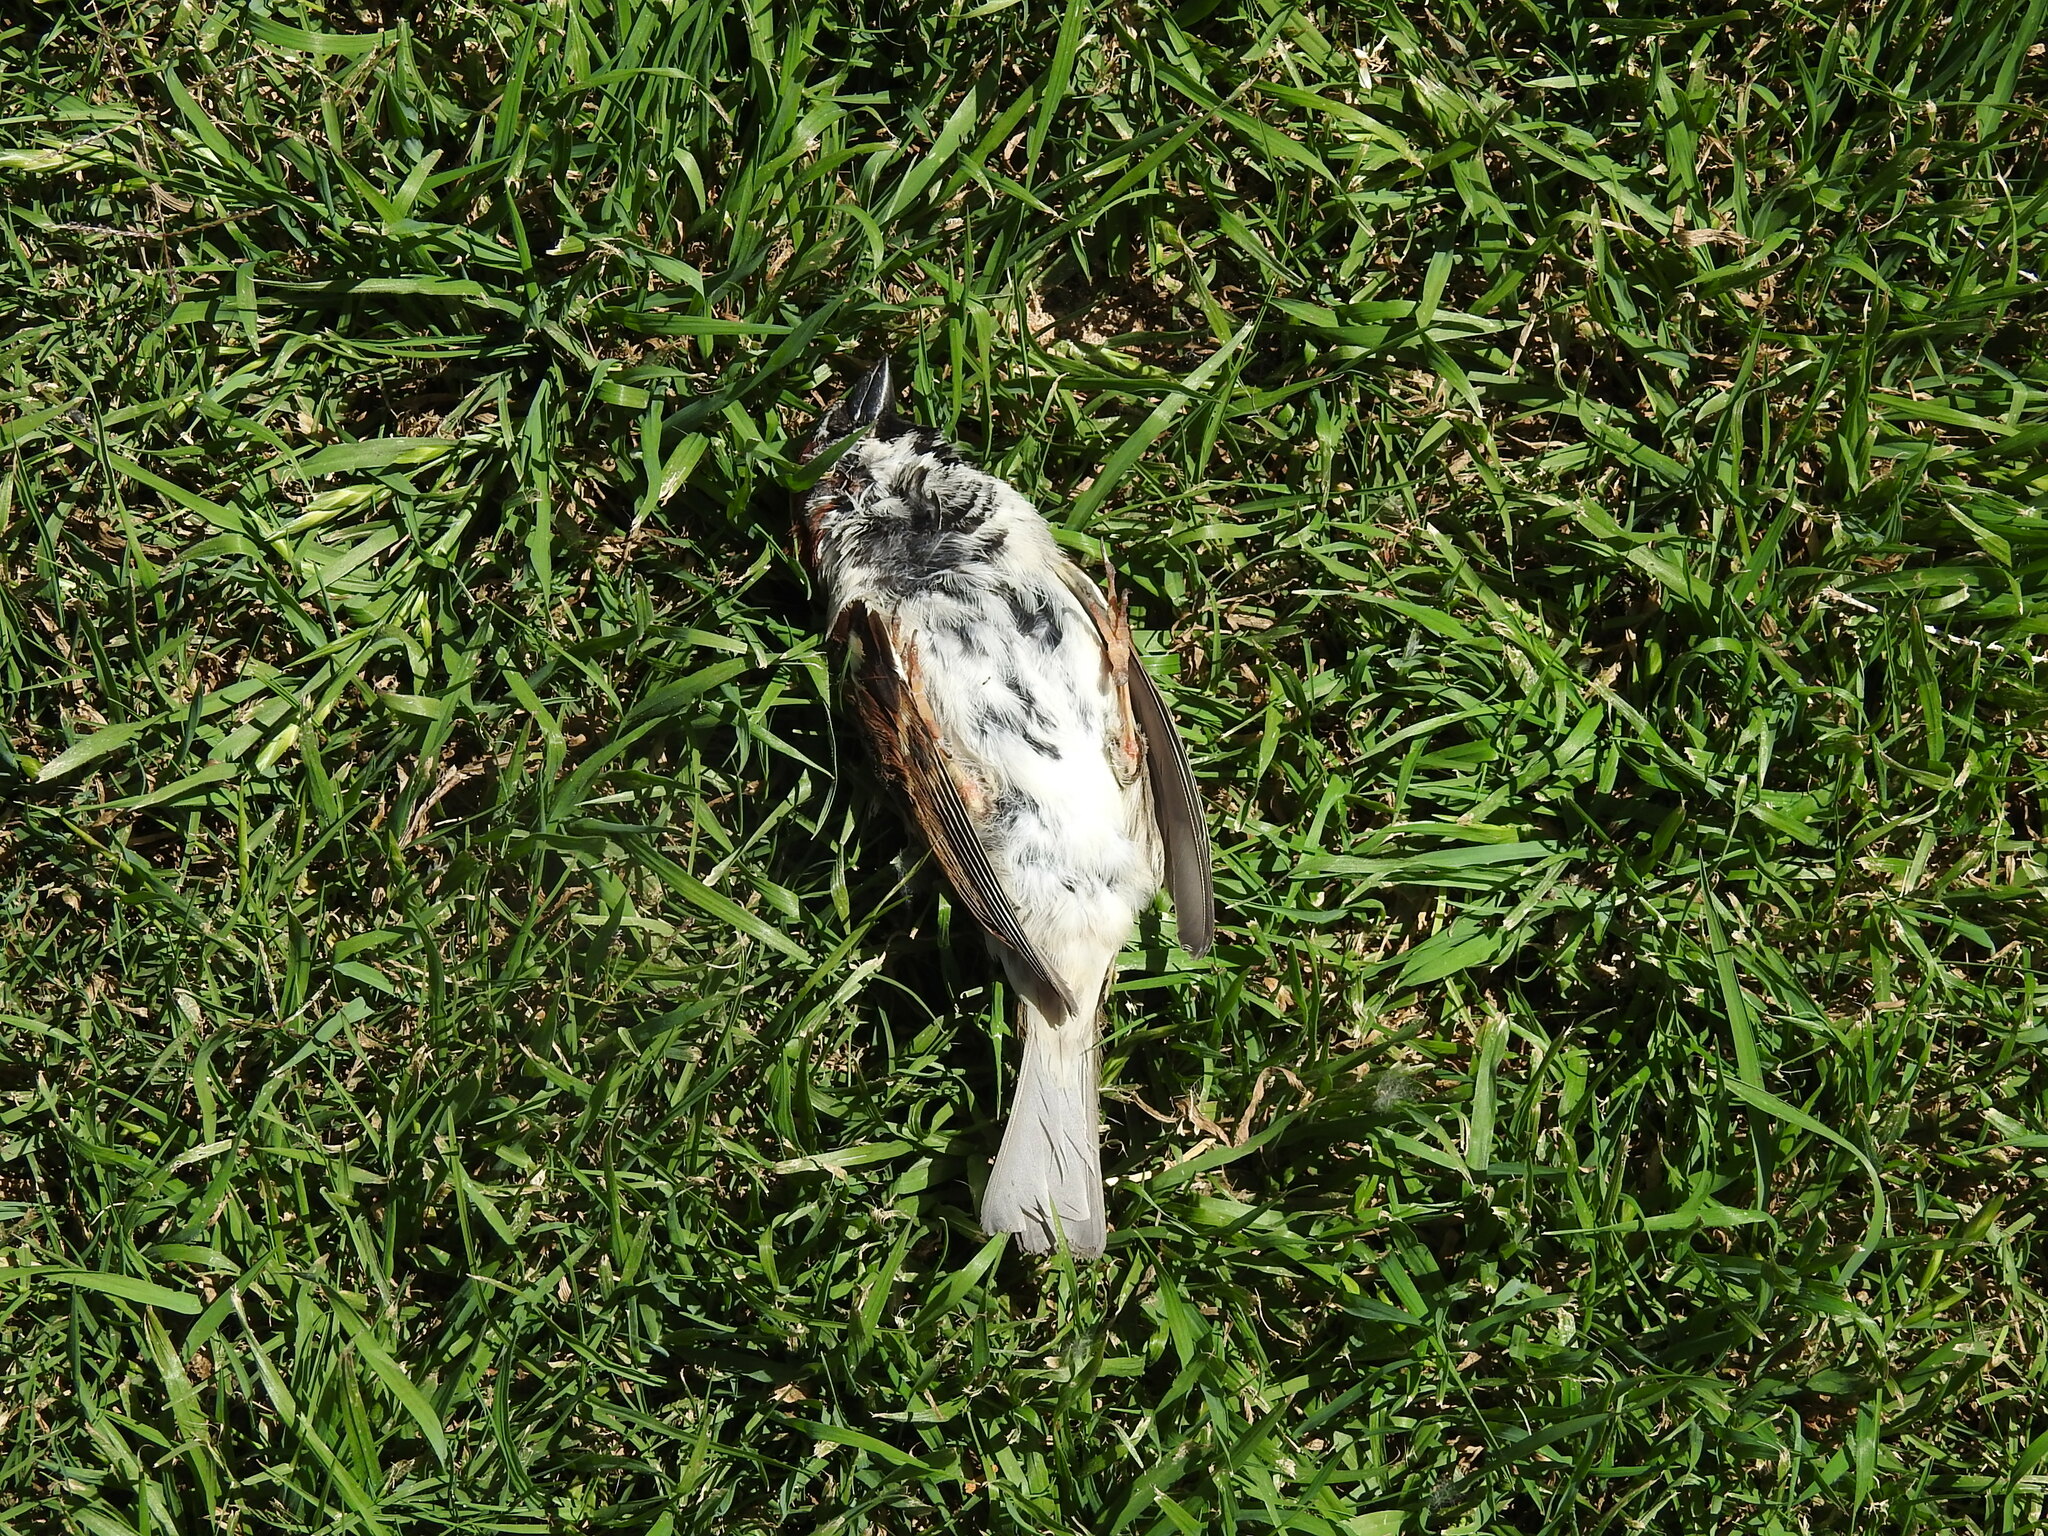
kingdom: Animalia
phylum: Chordata
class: Aves
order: Passeriformes
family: Passeridae
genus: Passer
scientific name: Passer domesticus
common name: House sparrow
